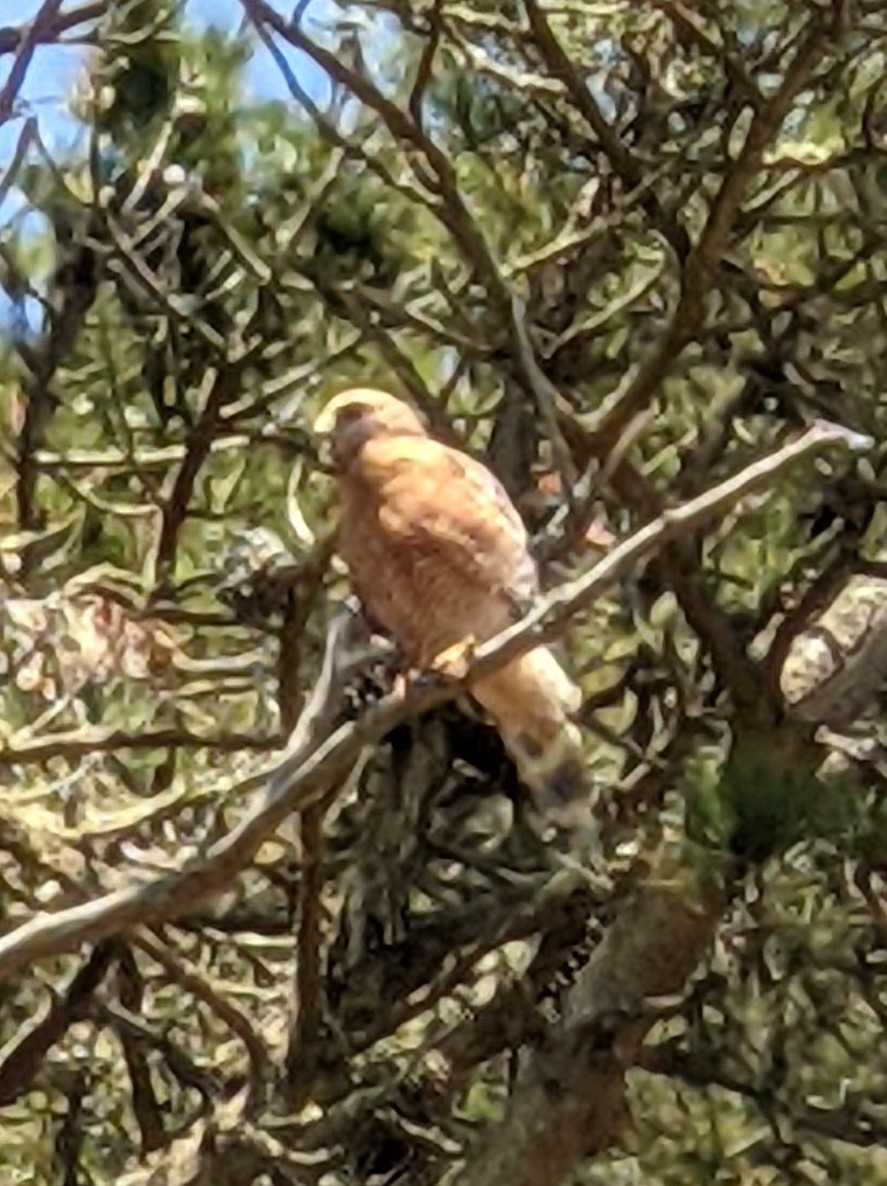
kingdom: Animalia
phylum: Chordata
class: Aves
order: Accipitriformes
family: Accipitridae
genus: Buteo
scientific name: Buteo lineatus
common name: Red-shouldered hawk
